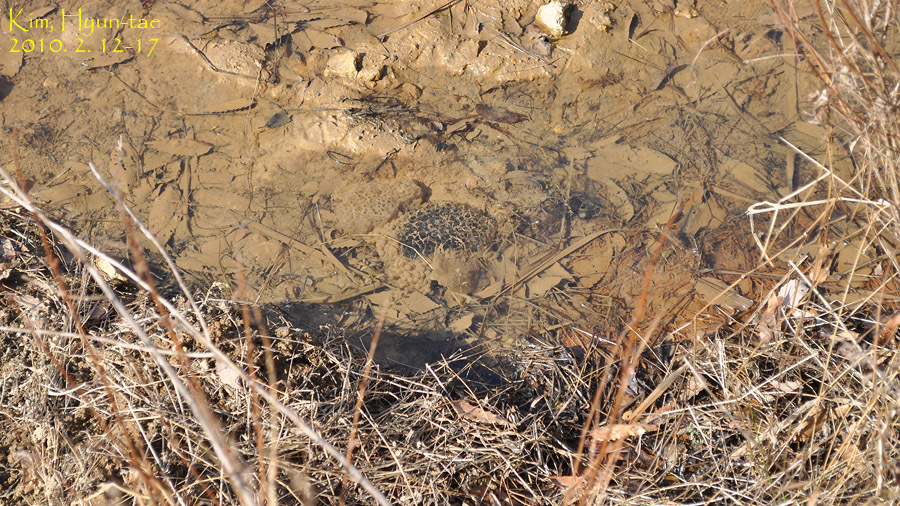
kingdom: Animalia
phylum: Chordata
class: Amphibia
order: Anura
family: Ranidae
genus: Rana
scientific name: Rana uenoi
